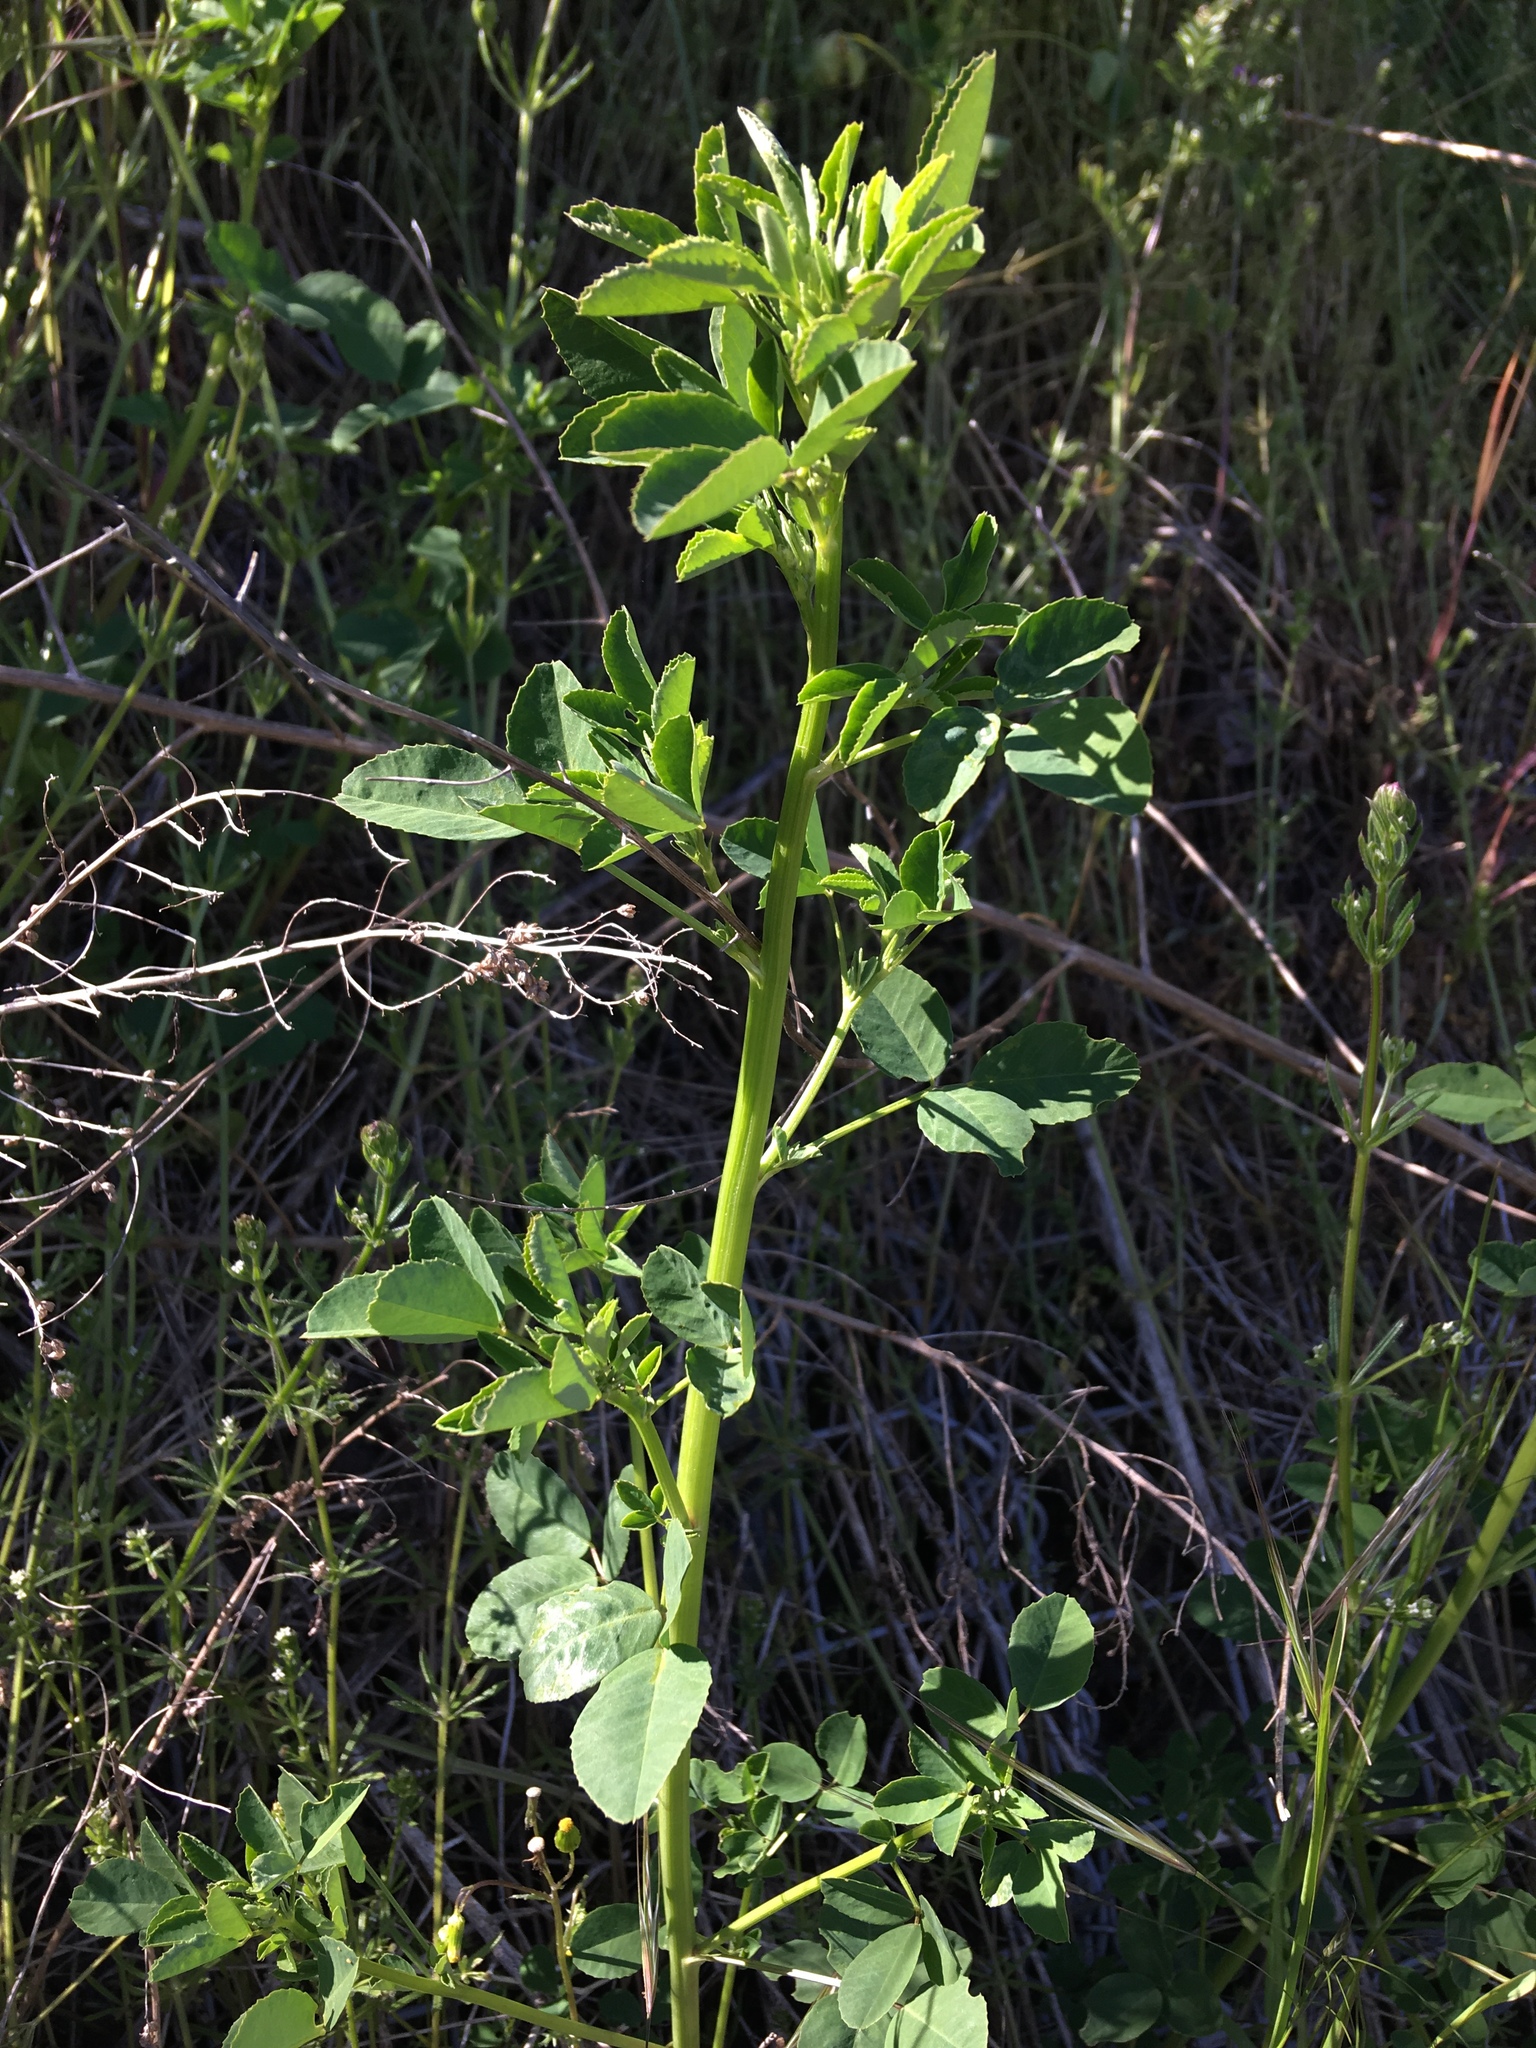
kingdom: Plantae
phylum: Tracheophyta
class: Magnoliopsida
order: Fabales
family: Fabaceae
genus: Melilotus
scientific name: Melilotus
